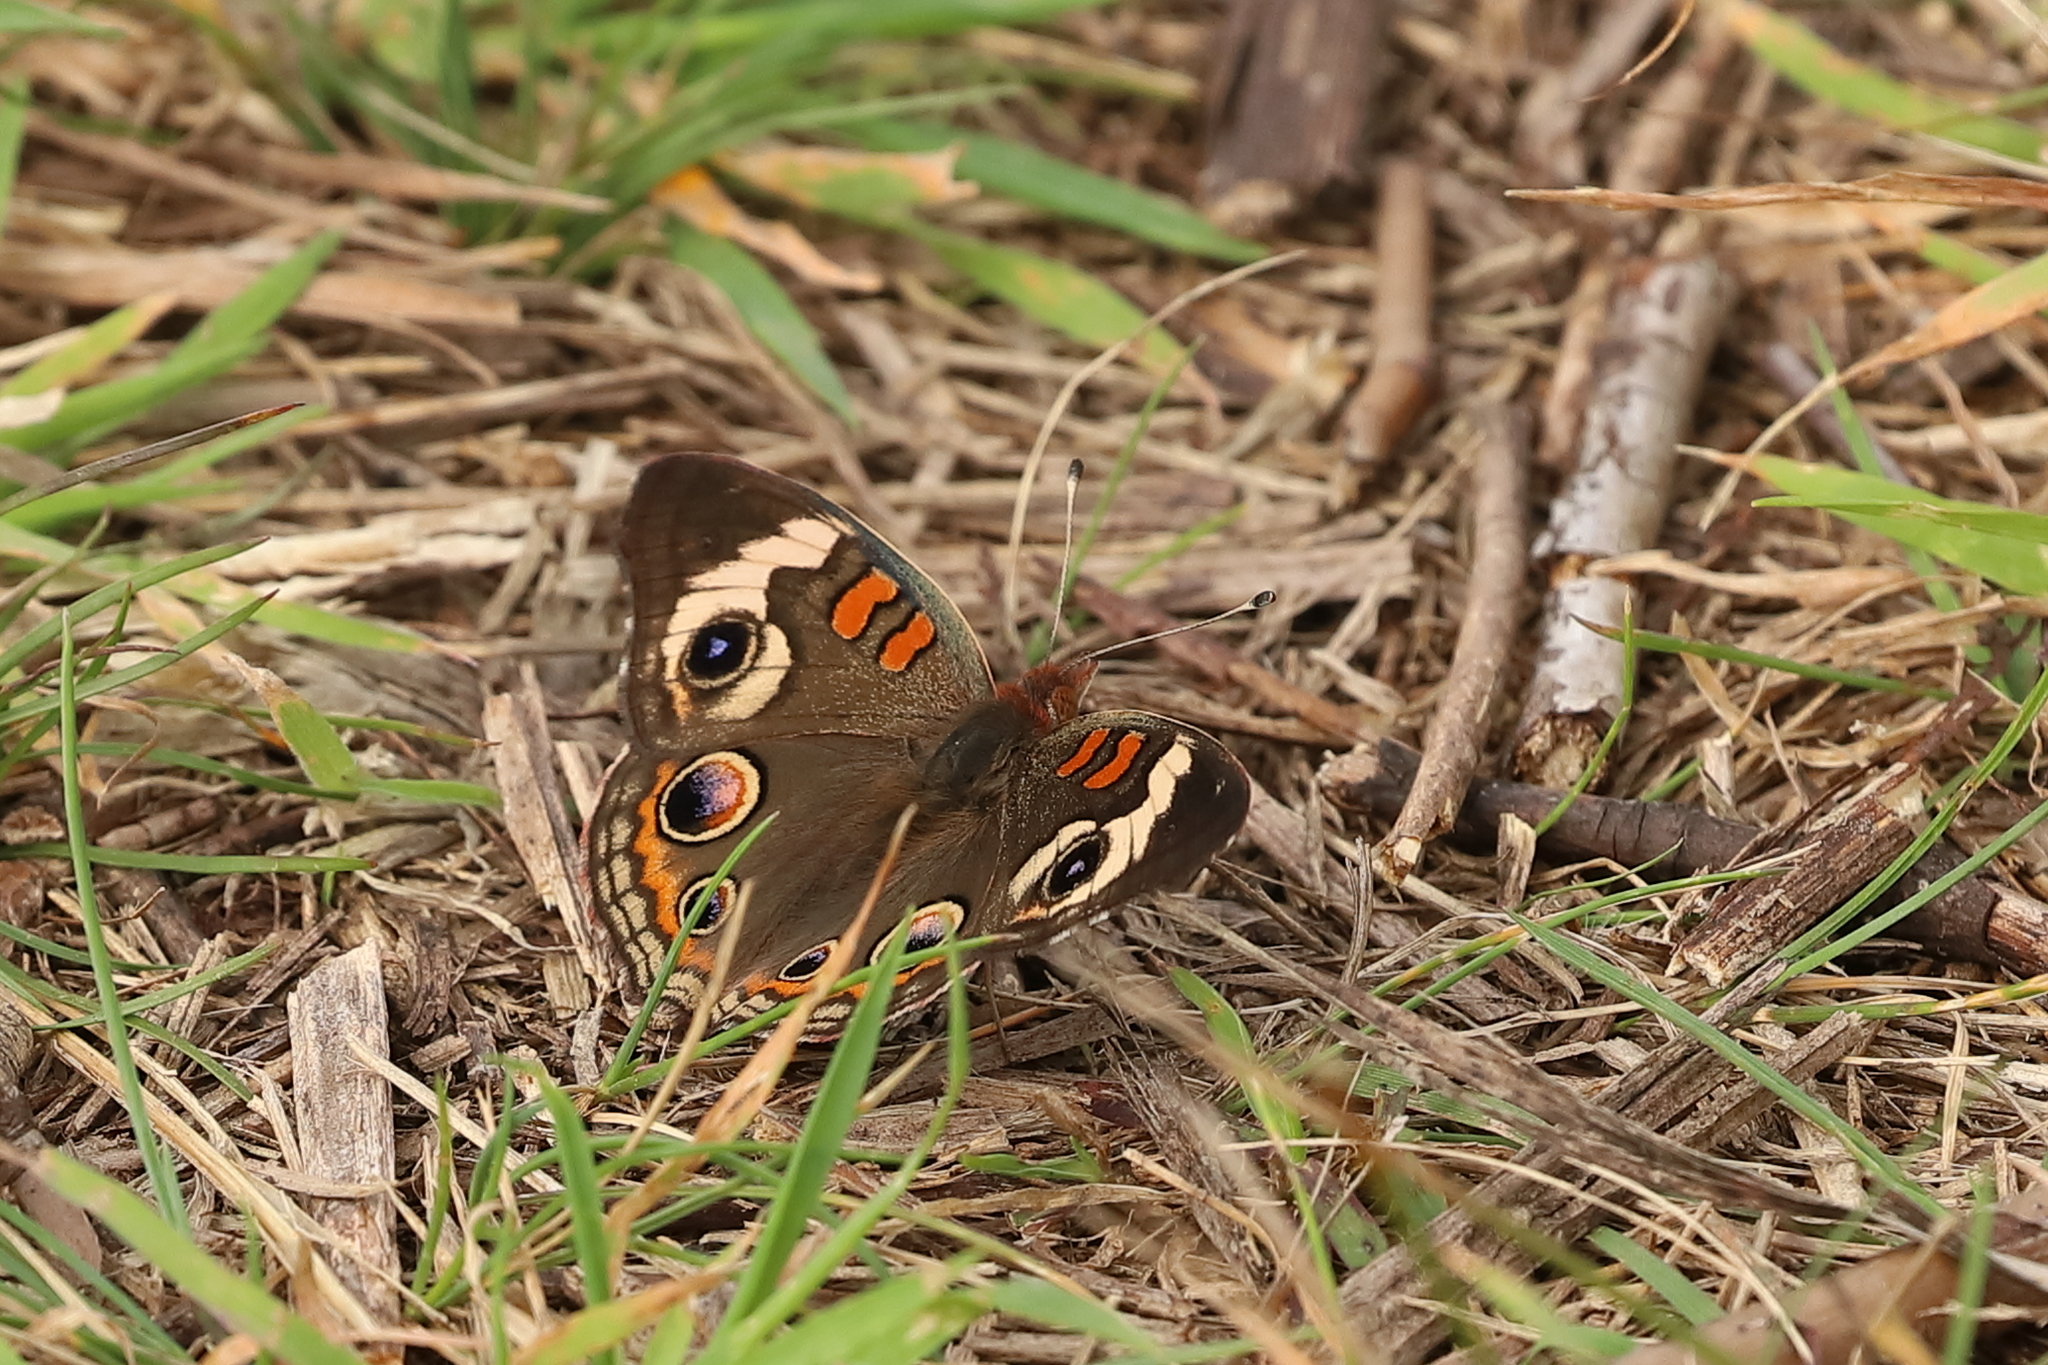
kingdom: Animalia
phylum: Arthropoda
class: Insecta
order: Lepidoptera
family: Nymphalidae
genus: Junonia
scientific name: Junonia coenia
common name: Common buckeye
